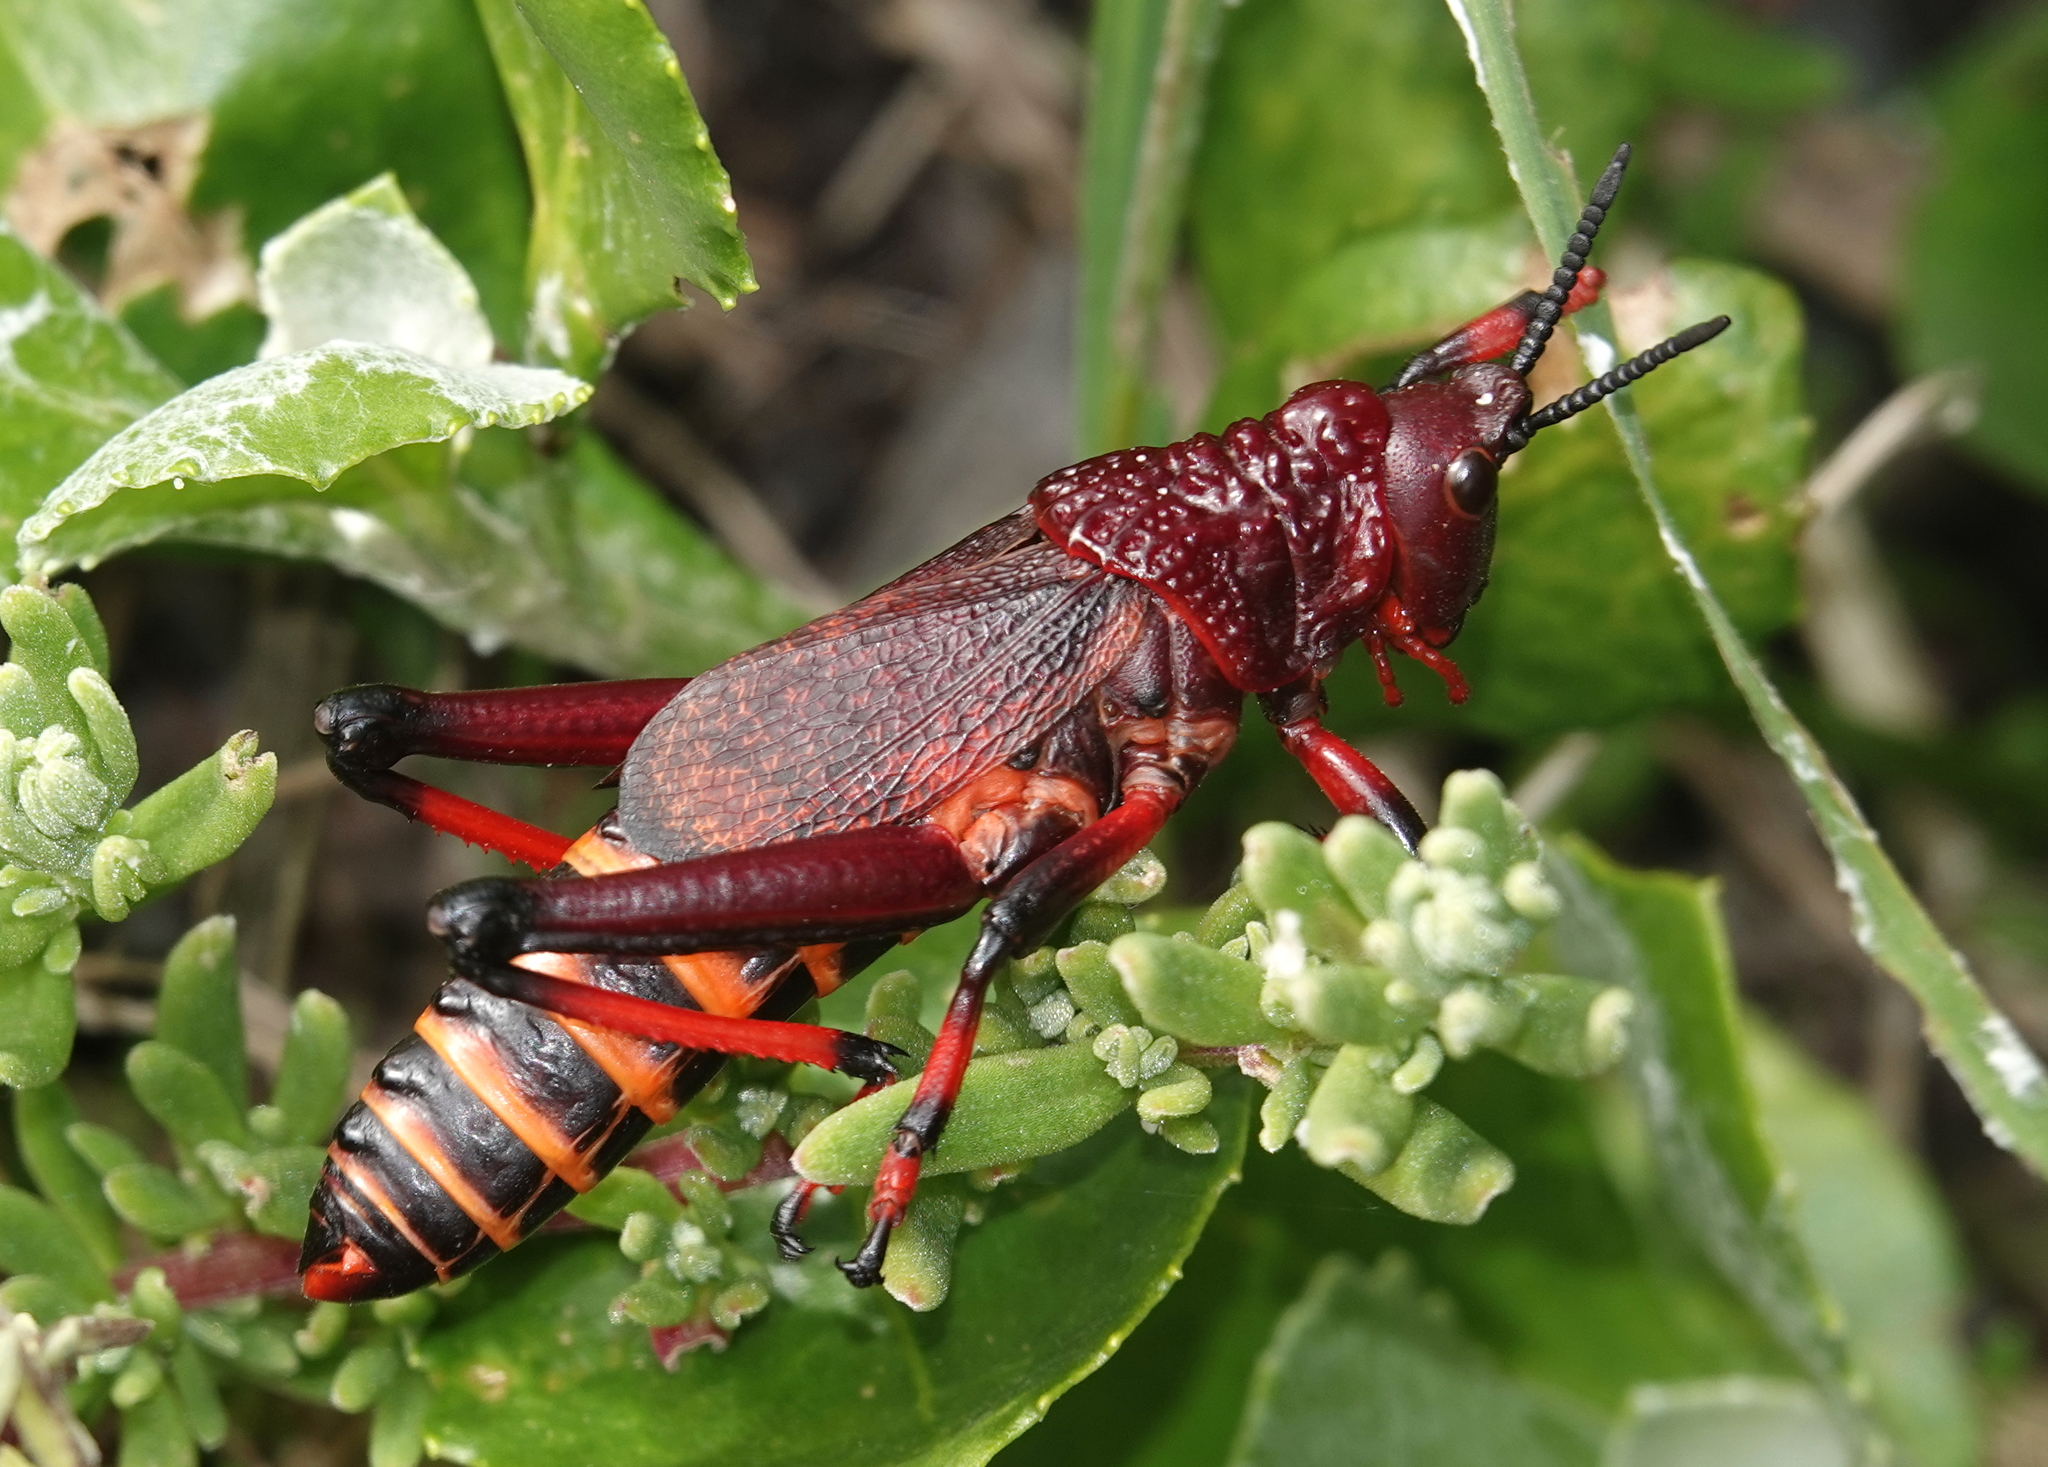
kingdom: Animalia
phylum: Arthropoda
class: Insecta
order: Orthoptera
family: Pyrgomorphidae
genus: Dictyophorus
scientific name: Dictyophorus spumans
